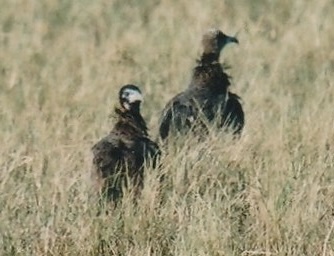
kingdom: Animalia
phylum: Chordata
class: Aves
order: Accipitriformes
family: Accipitridae
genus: Necrosyrtes
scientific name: Necrosyrtes monachus
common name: Hooded vulture
